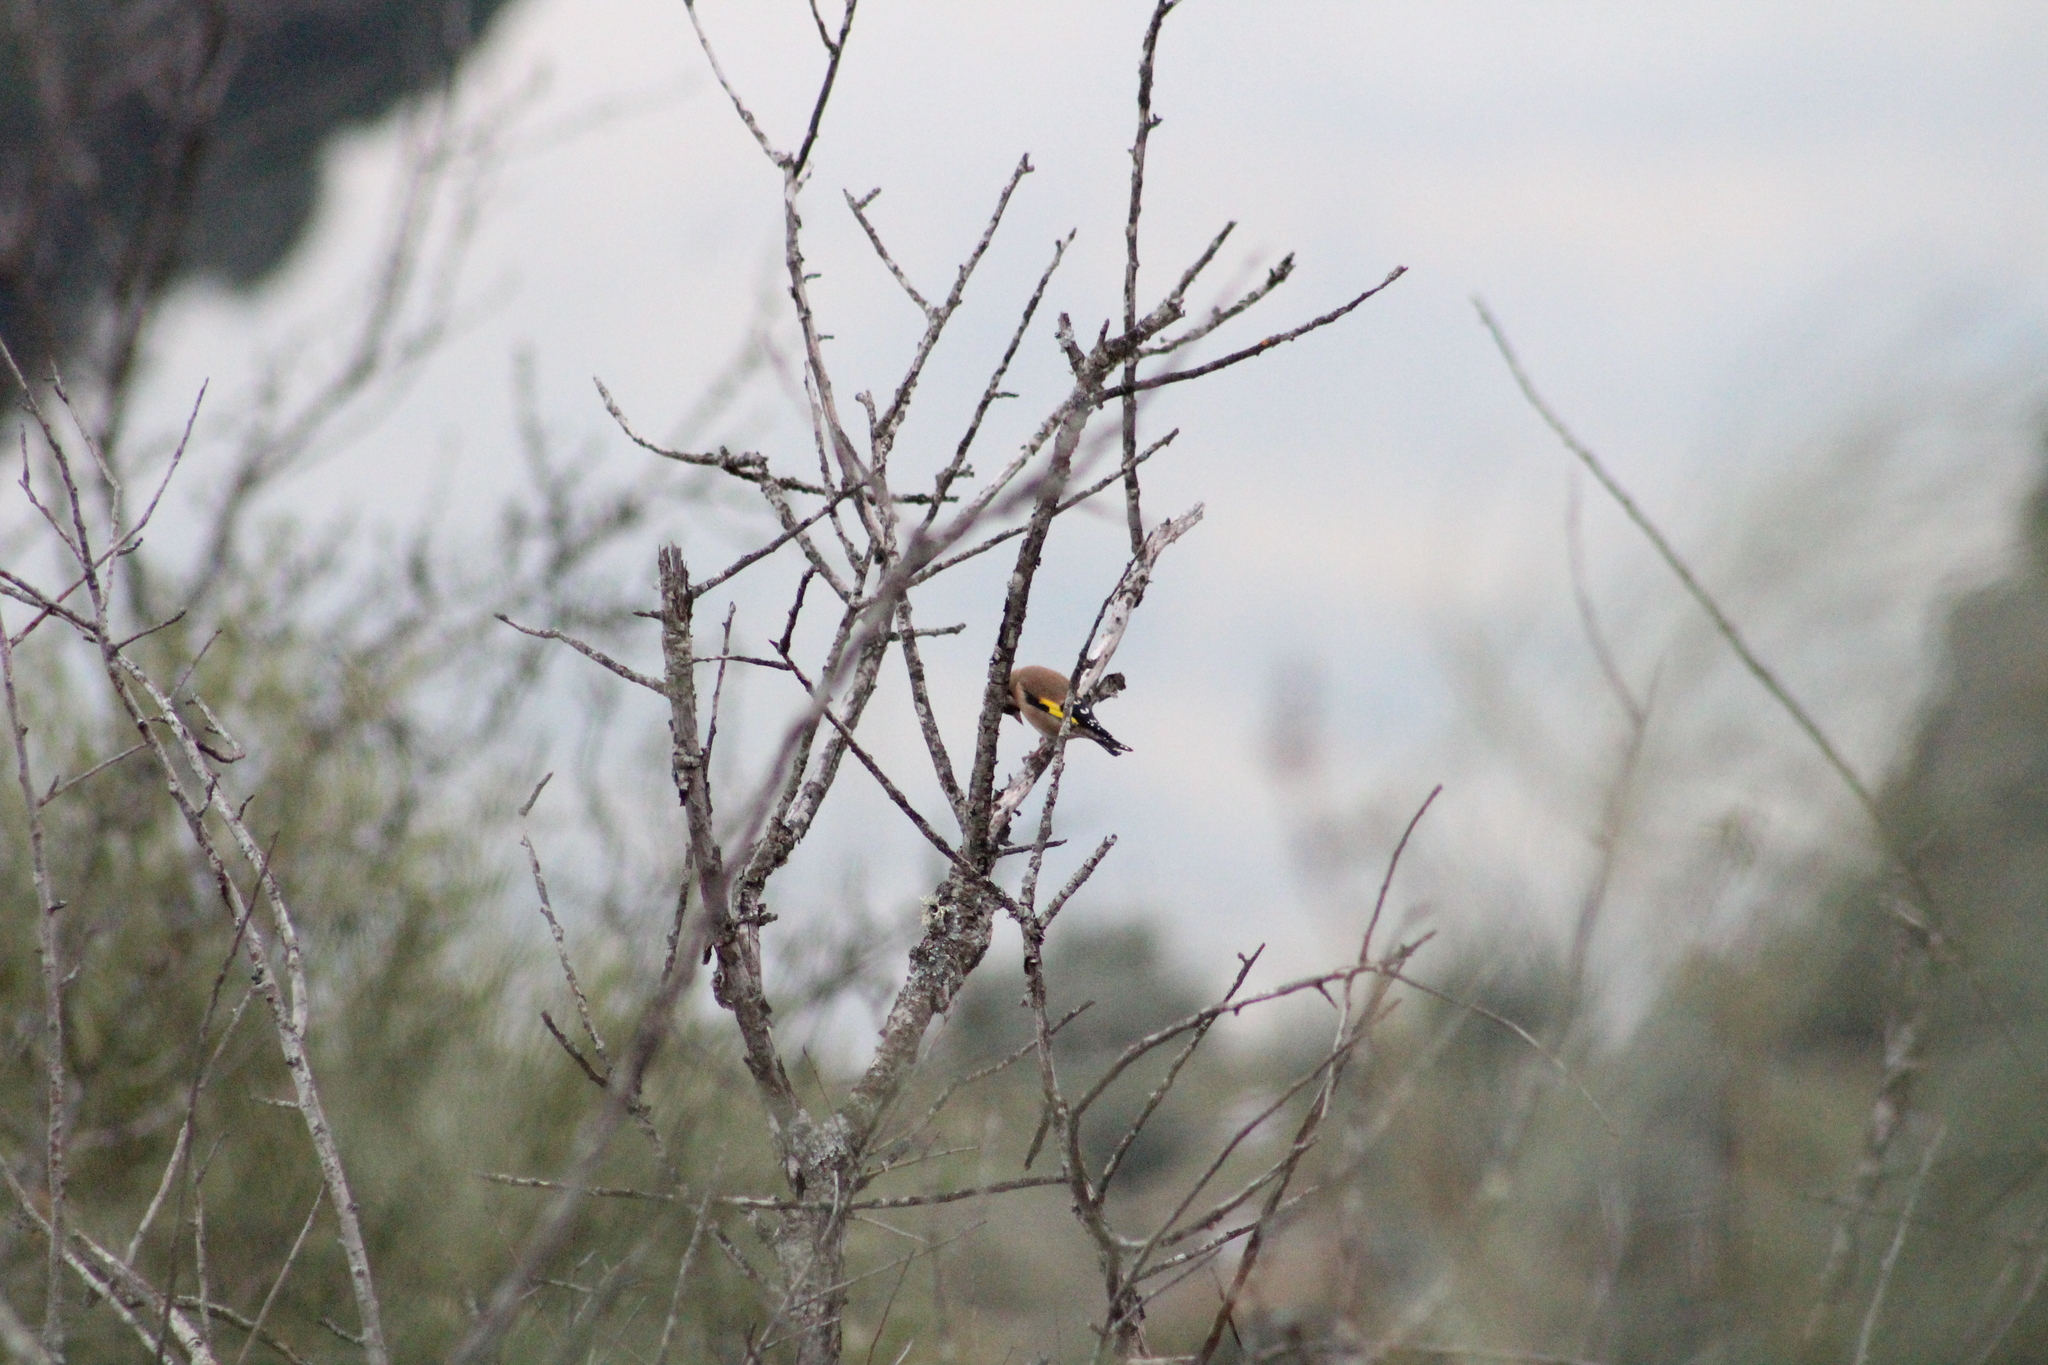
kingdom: Animalia
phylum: Chordata
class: Aves
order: Passeriformes
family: Fringillidae
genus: Carduelis
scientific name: Carduelis carduelis
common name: European goldfinch
